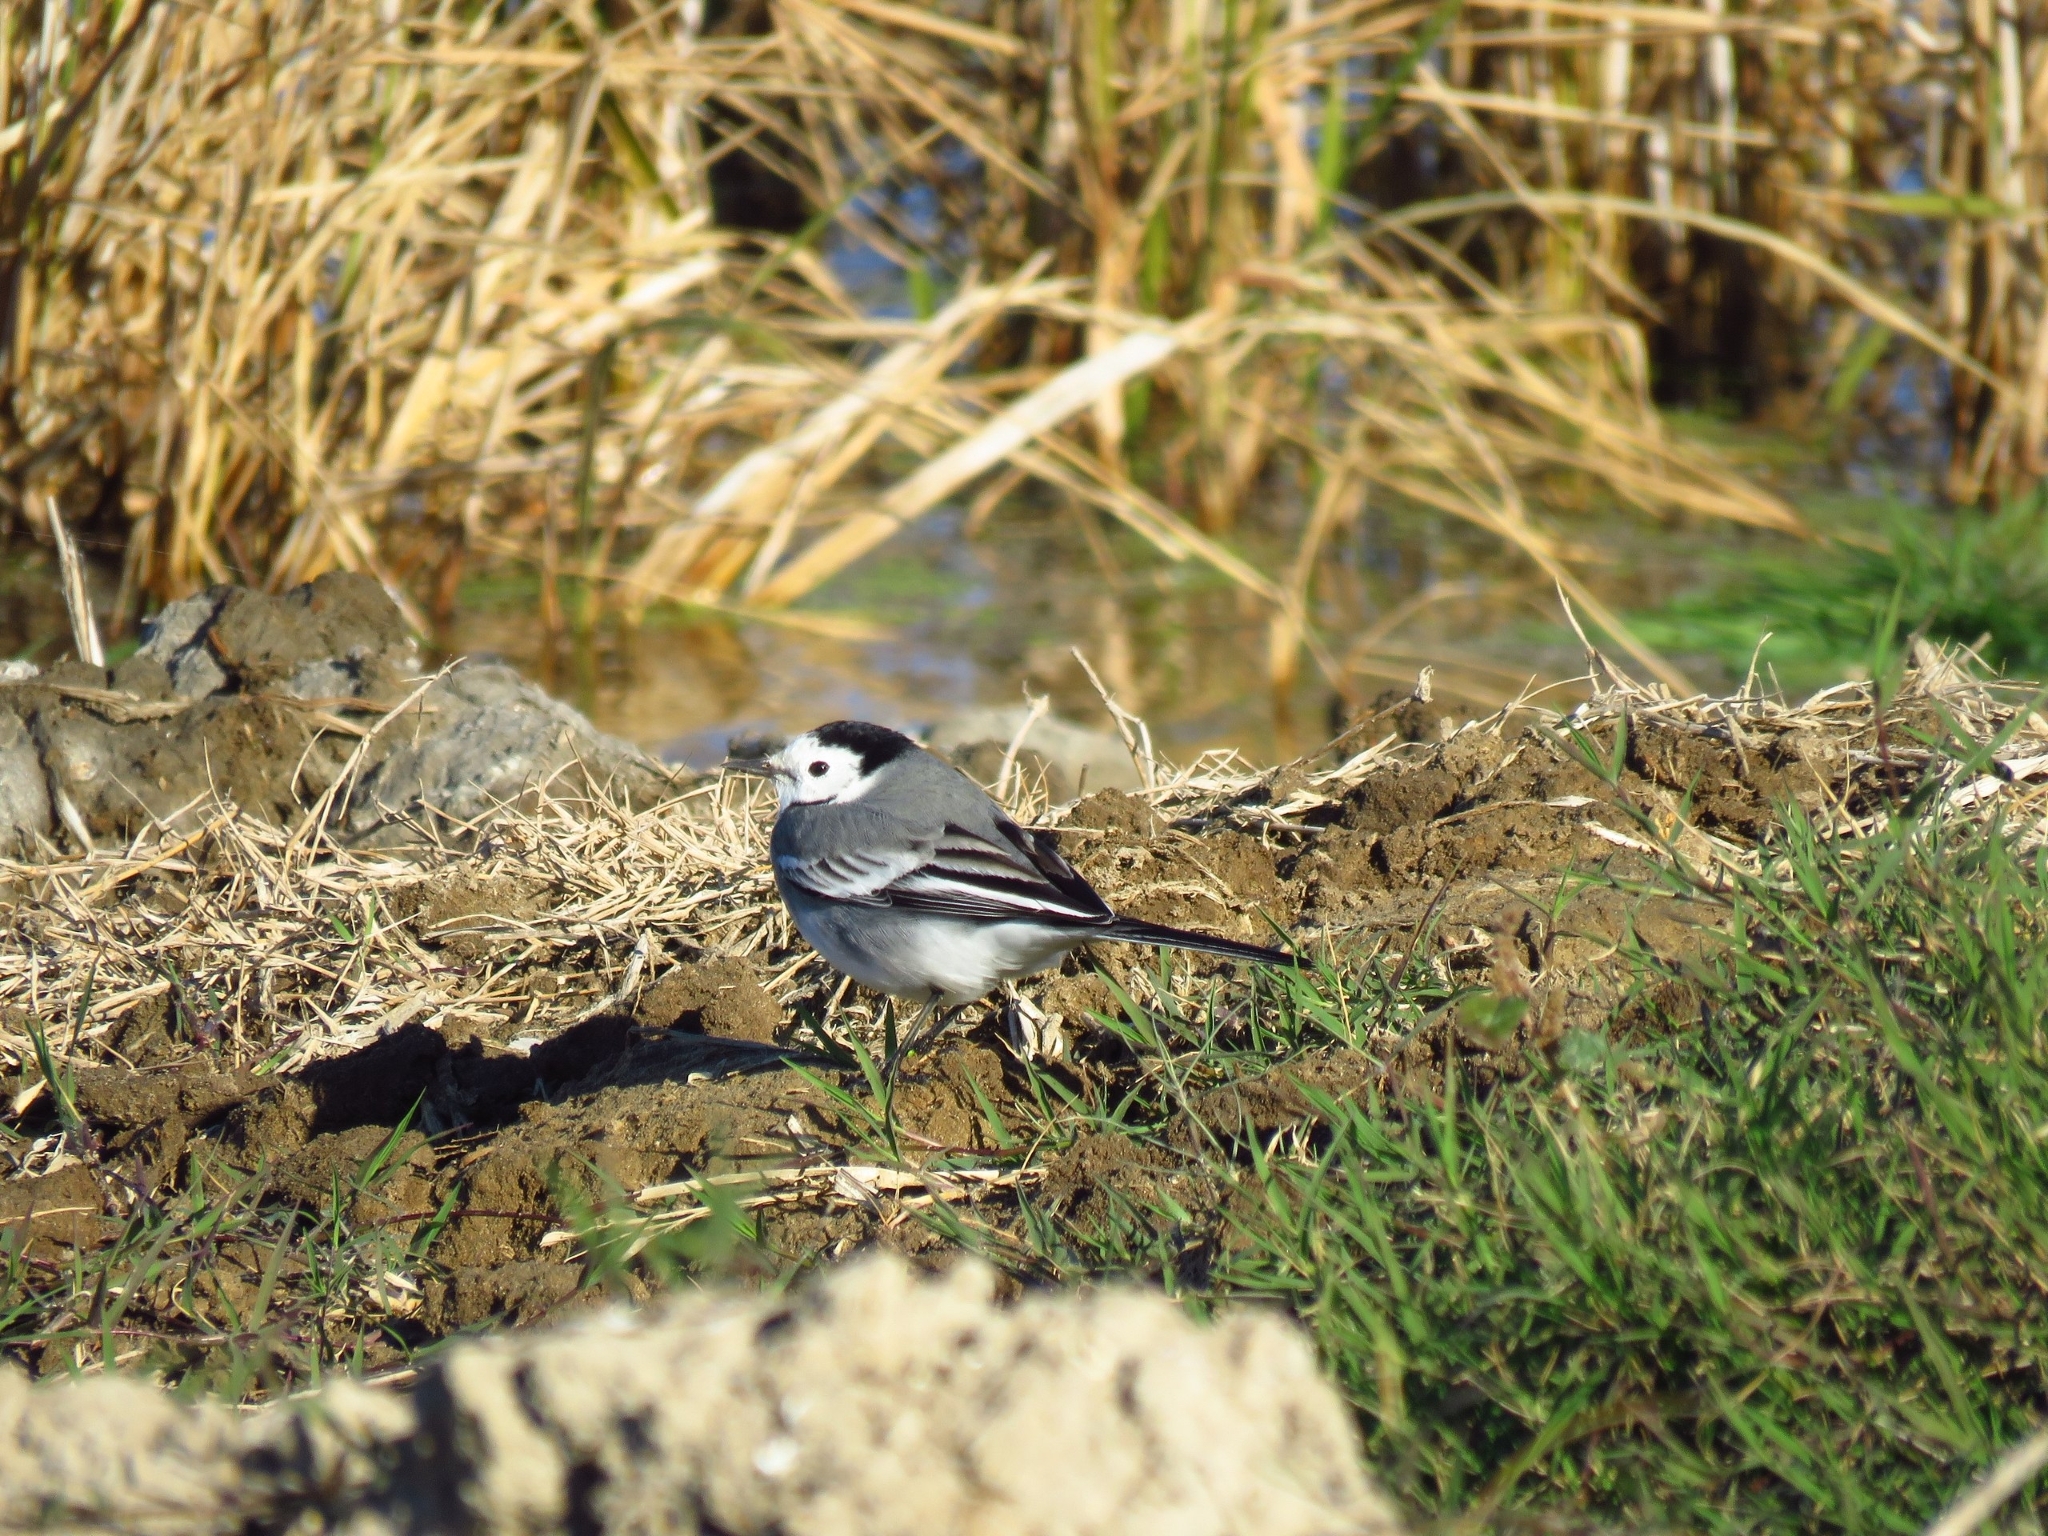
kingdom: Animalia
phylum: Chordata
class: Aves
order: Passeriformes
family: Motacillidae
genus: Motacilla
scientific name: Motacilla alba
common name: White wagtail
